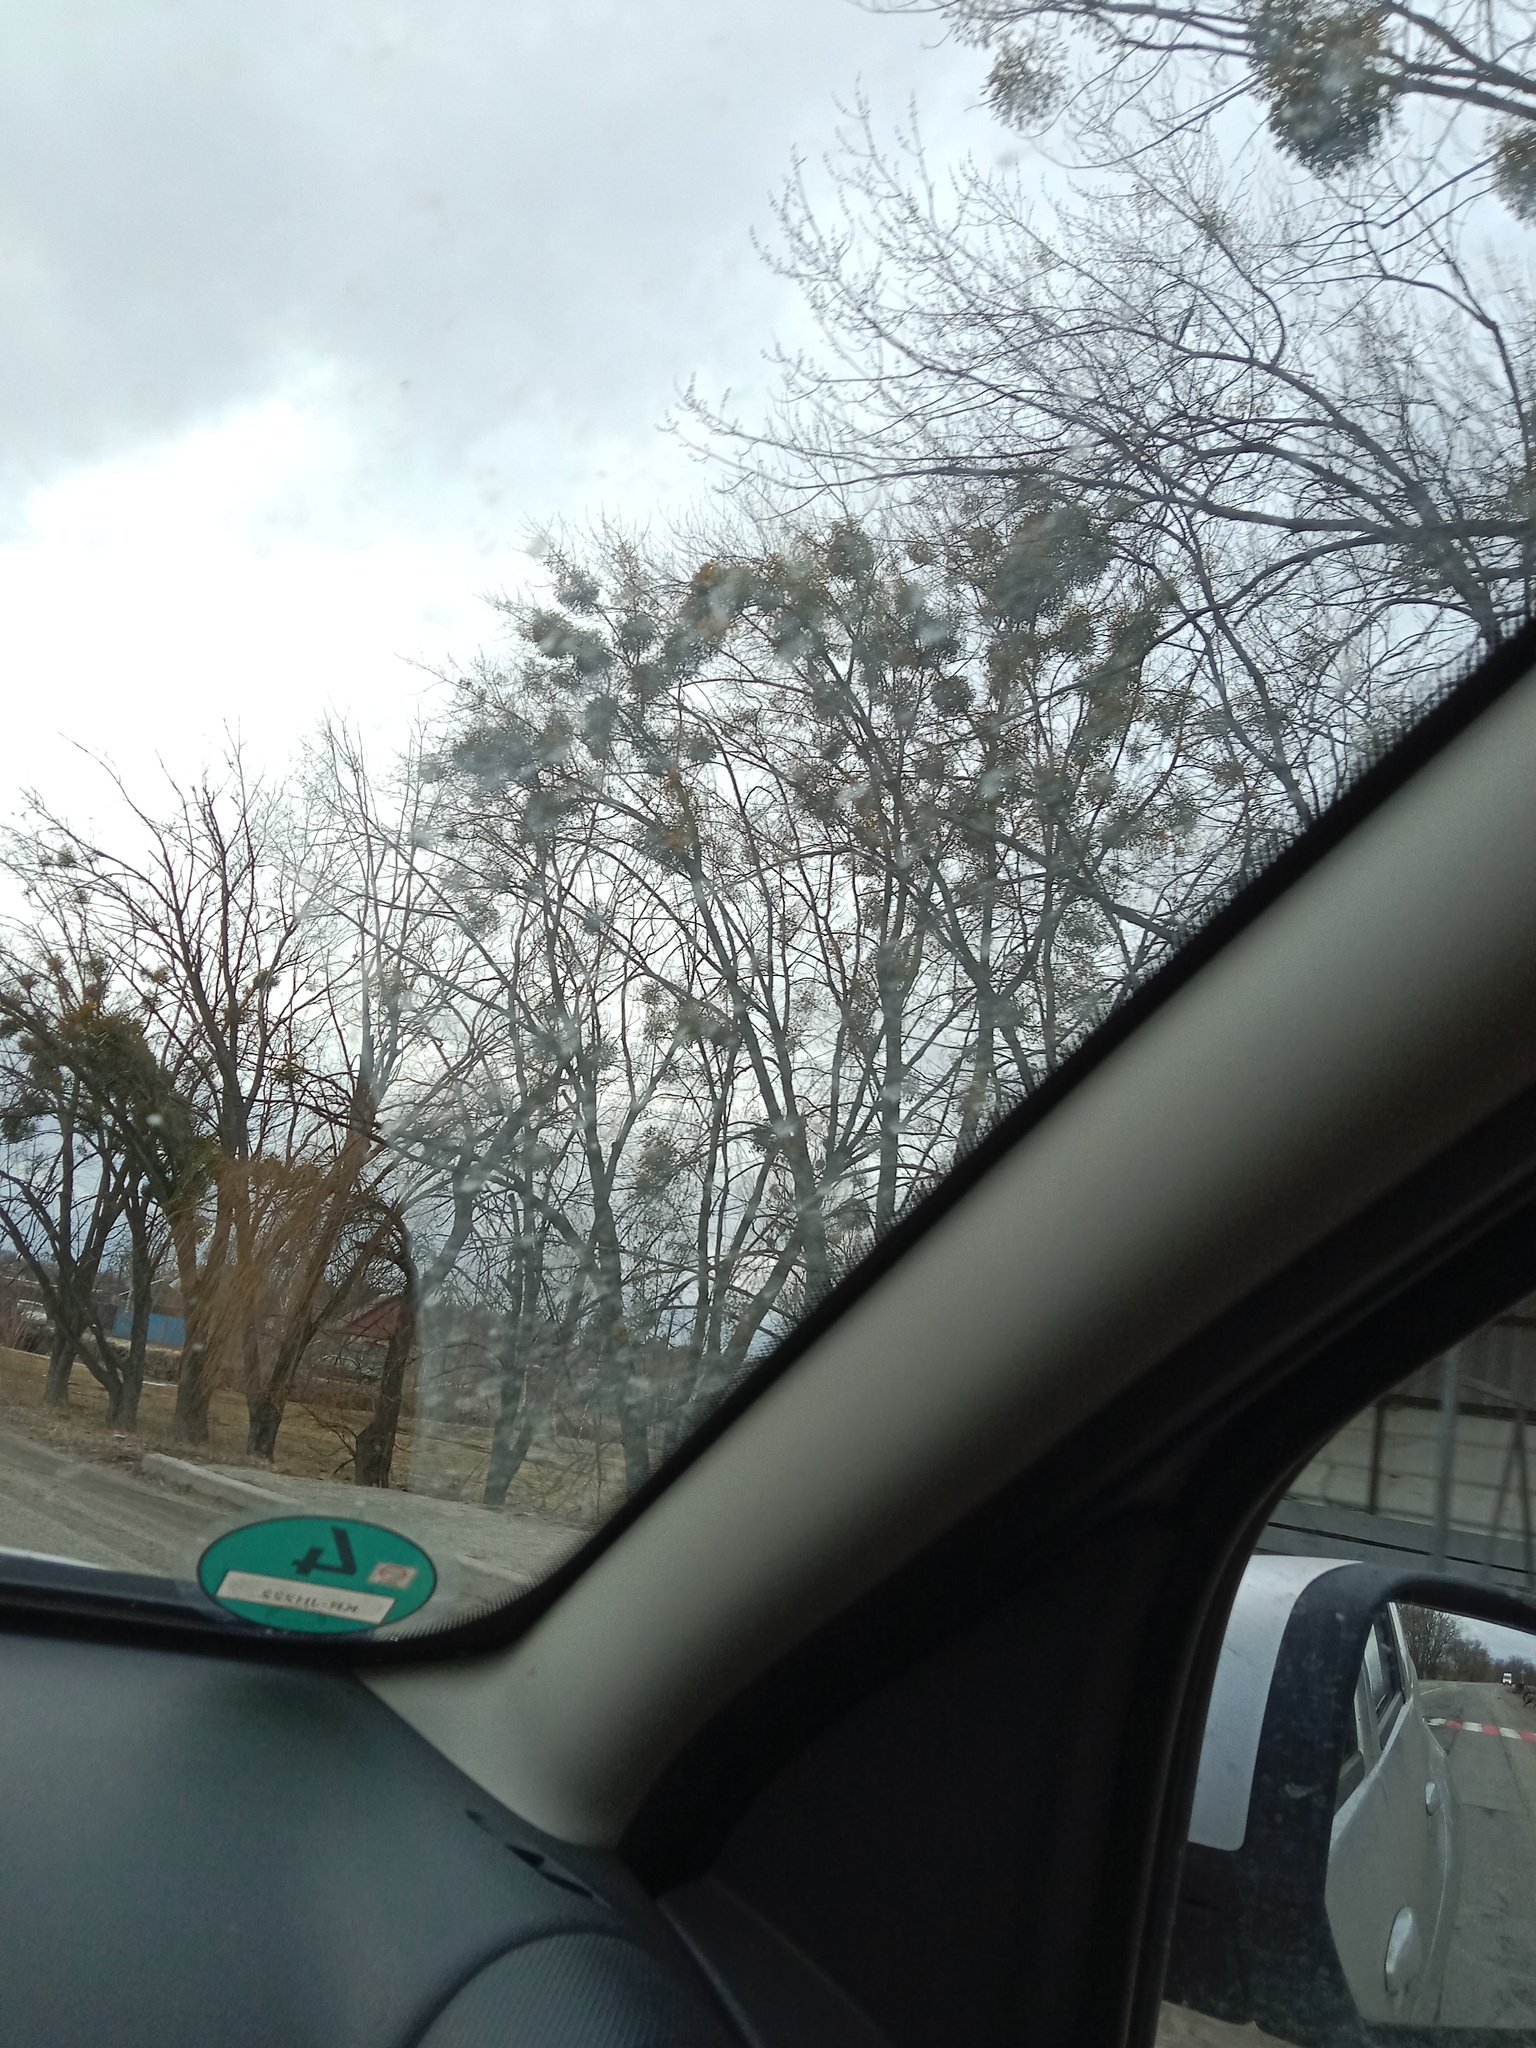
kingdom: Plantae
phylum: Tracheophyta
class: Magnoliopsida
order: Santalales
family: Viscaceae
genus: Viscum
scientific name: Viscum album
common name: Mistletoe
